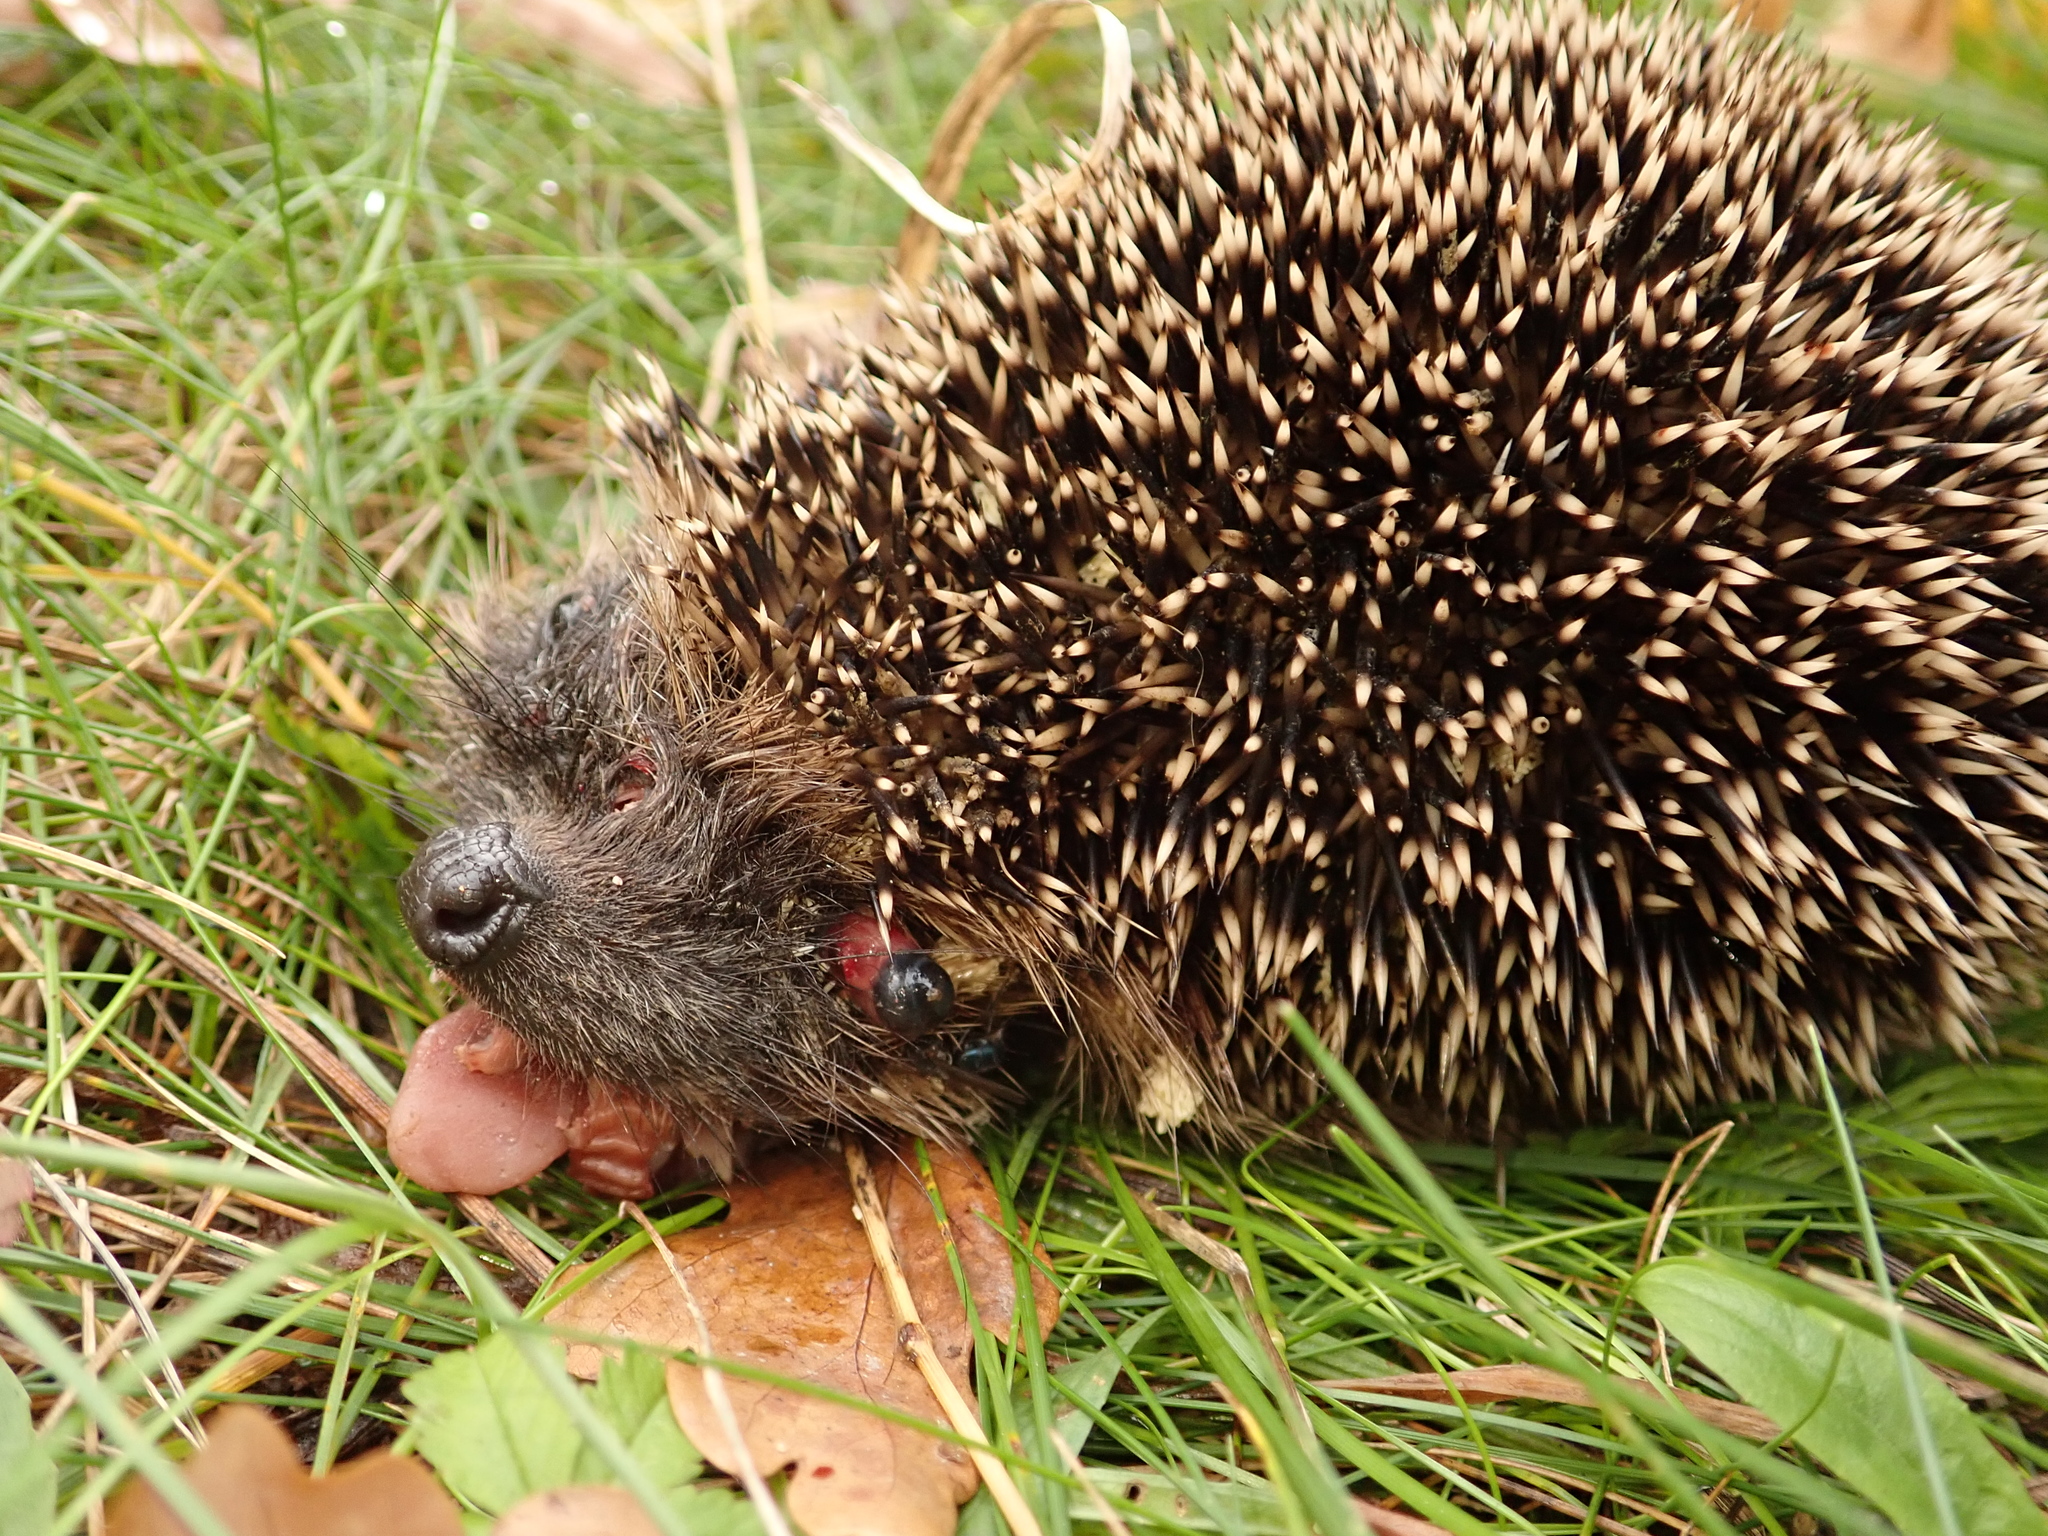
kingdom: Animalia
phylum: Chordata
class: Mammalia
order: Erinaceomorpha
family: Erinaceidae
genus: Erinaceus
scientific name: Erinaceus europaeus
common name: West european hedgehog
